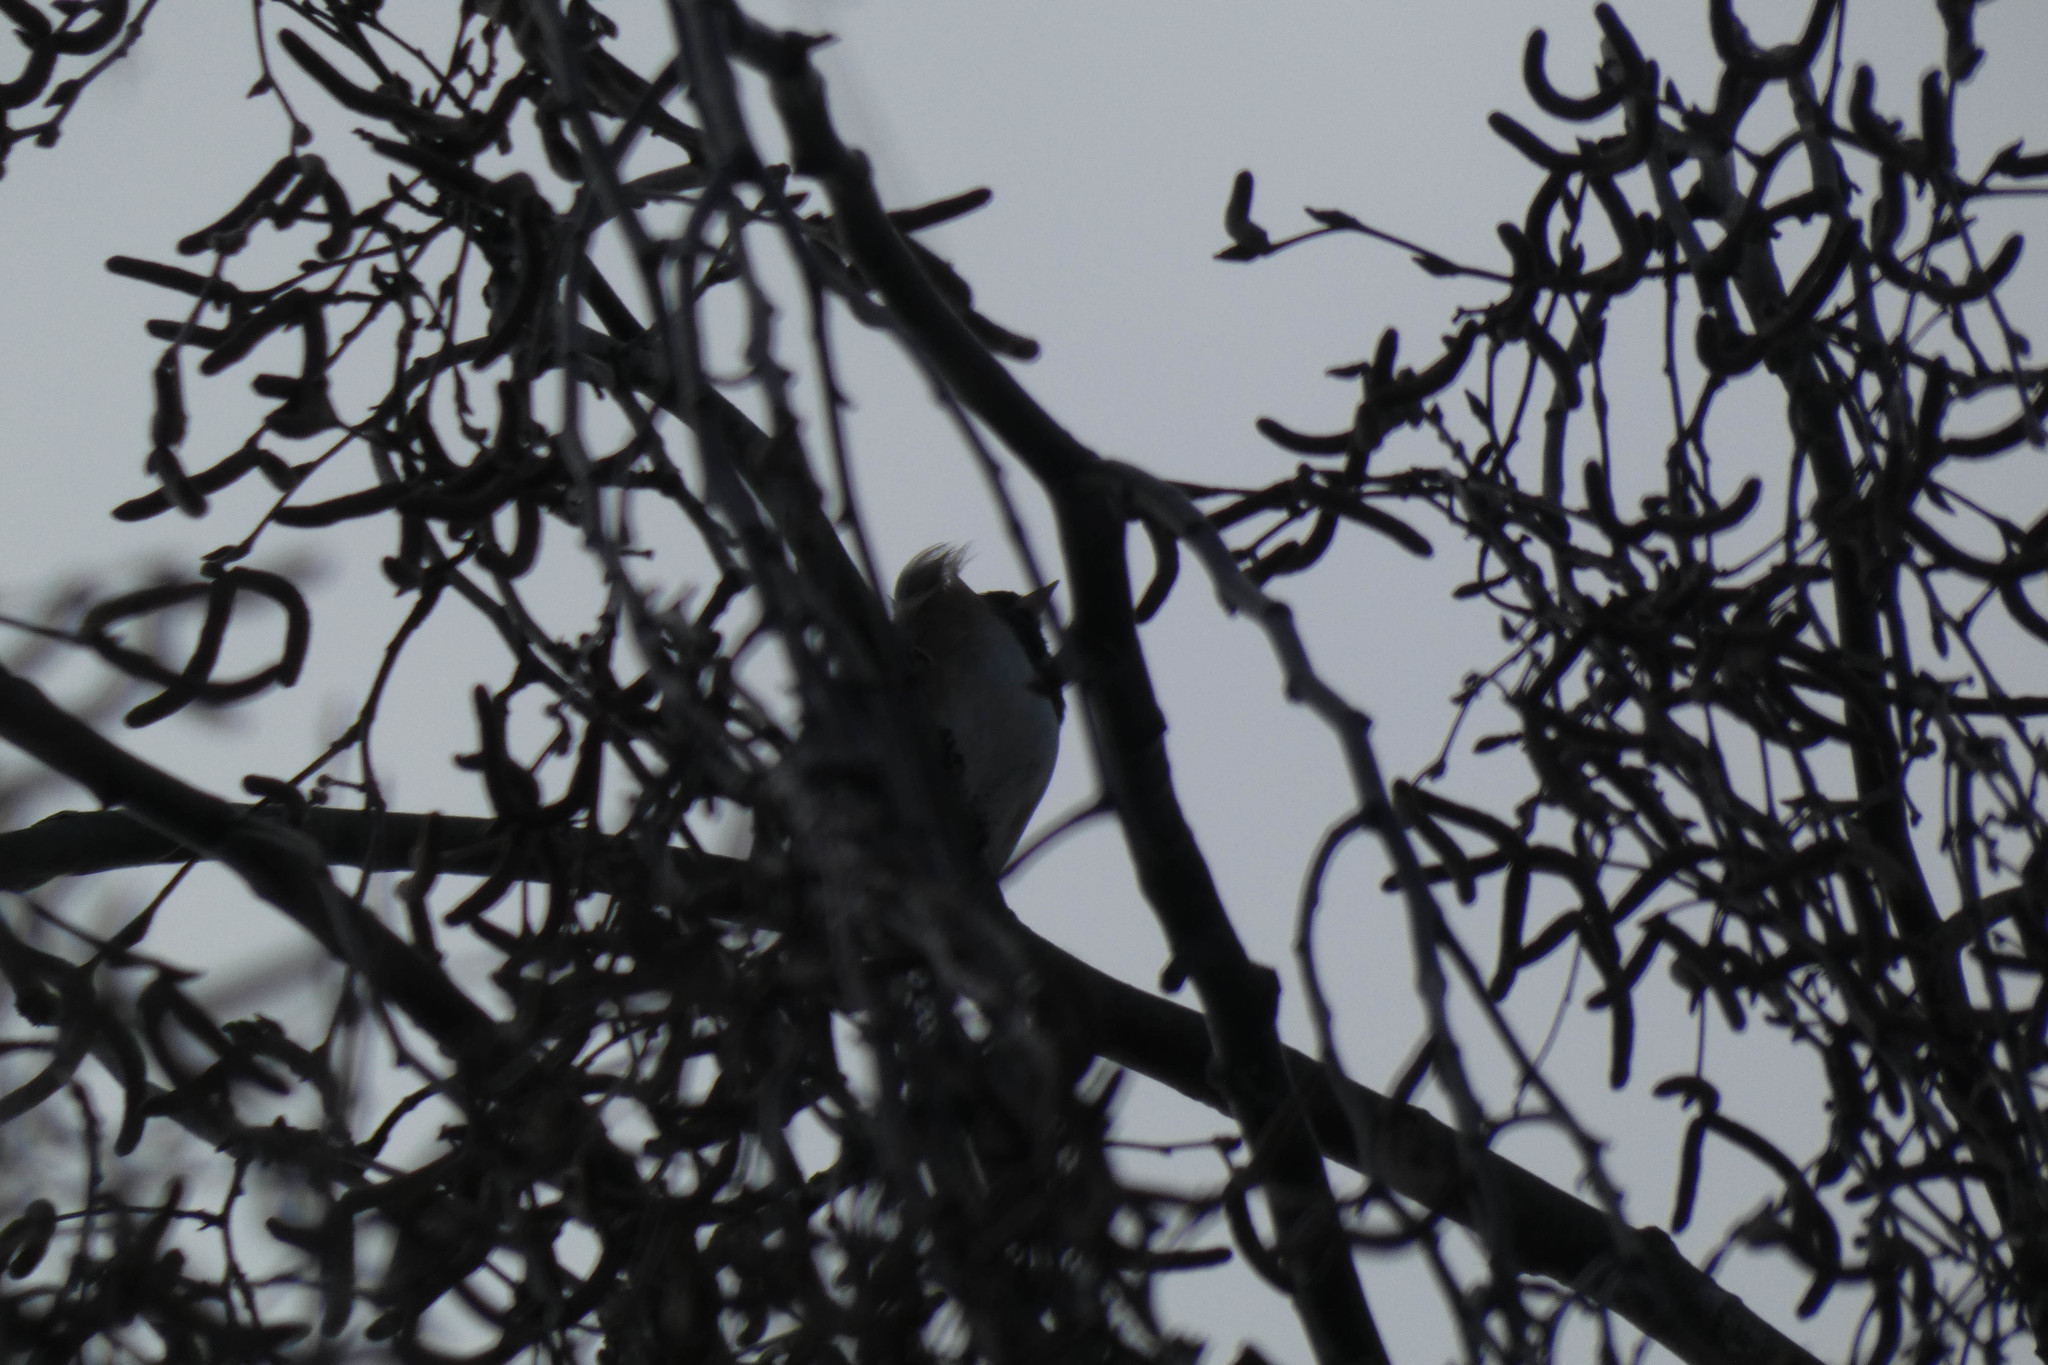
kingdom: Animalia
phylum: Chordata
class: Aves
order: Passeriformes
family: Passerellidae
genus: Junco
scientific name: Junco hyemalis
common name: Dark-eyed junco
